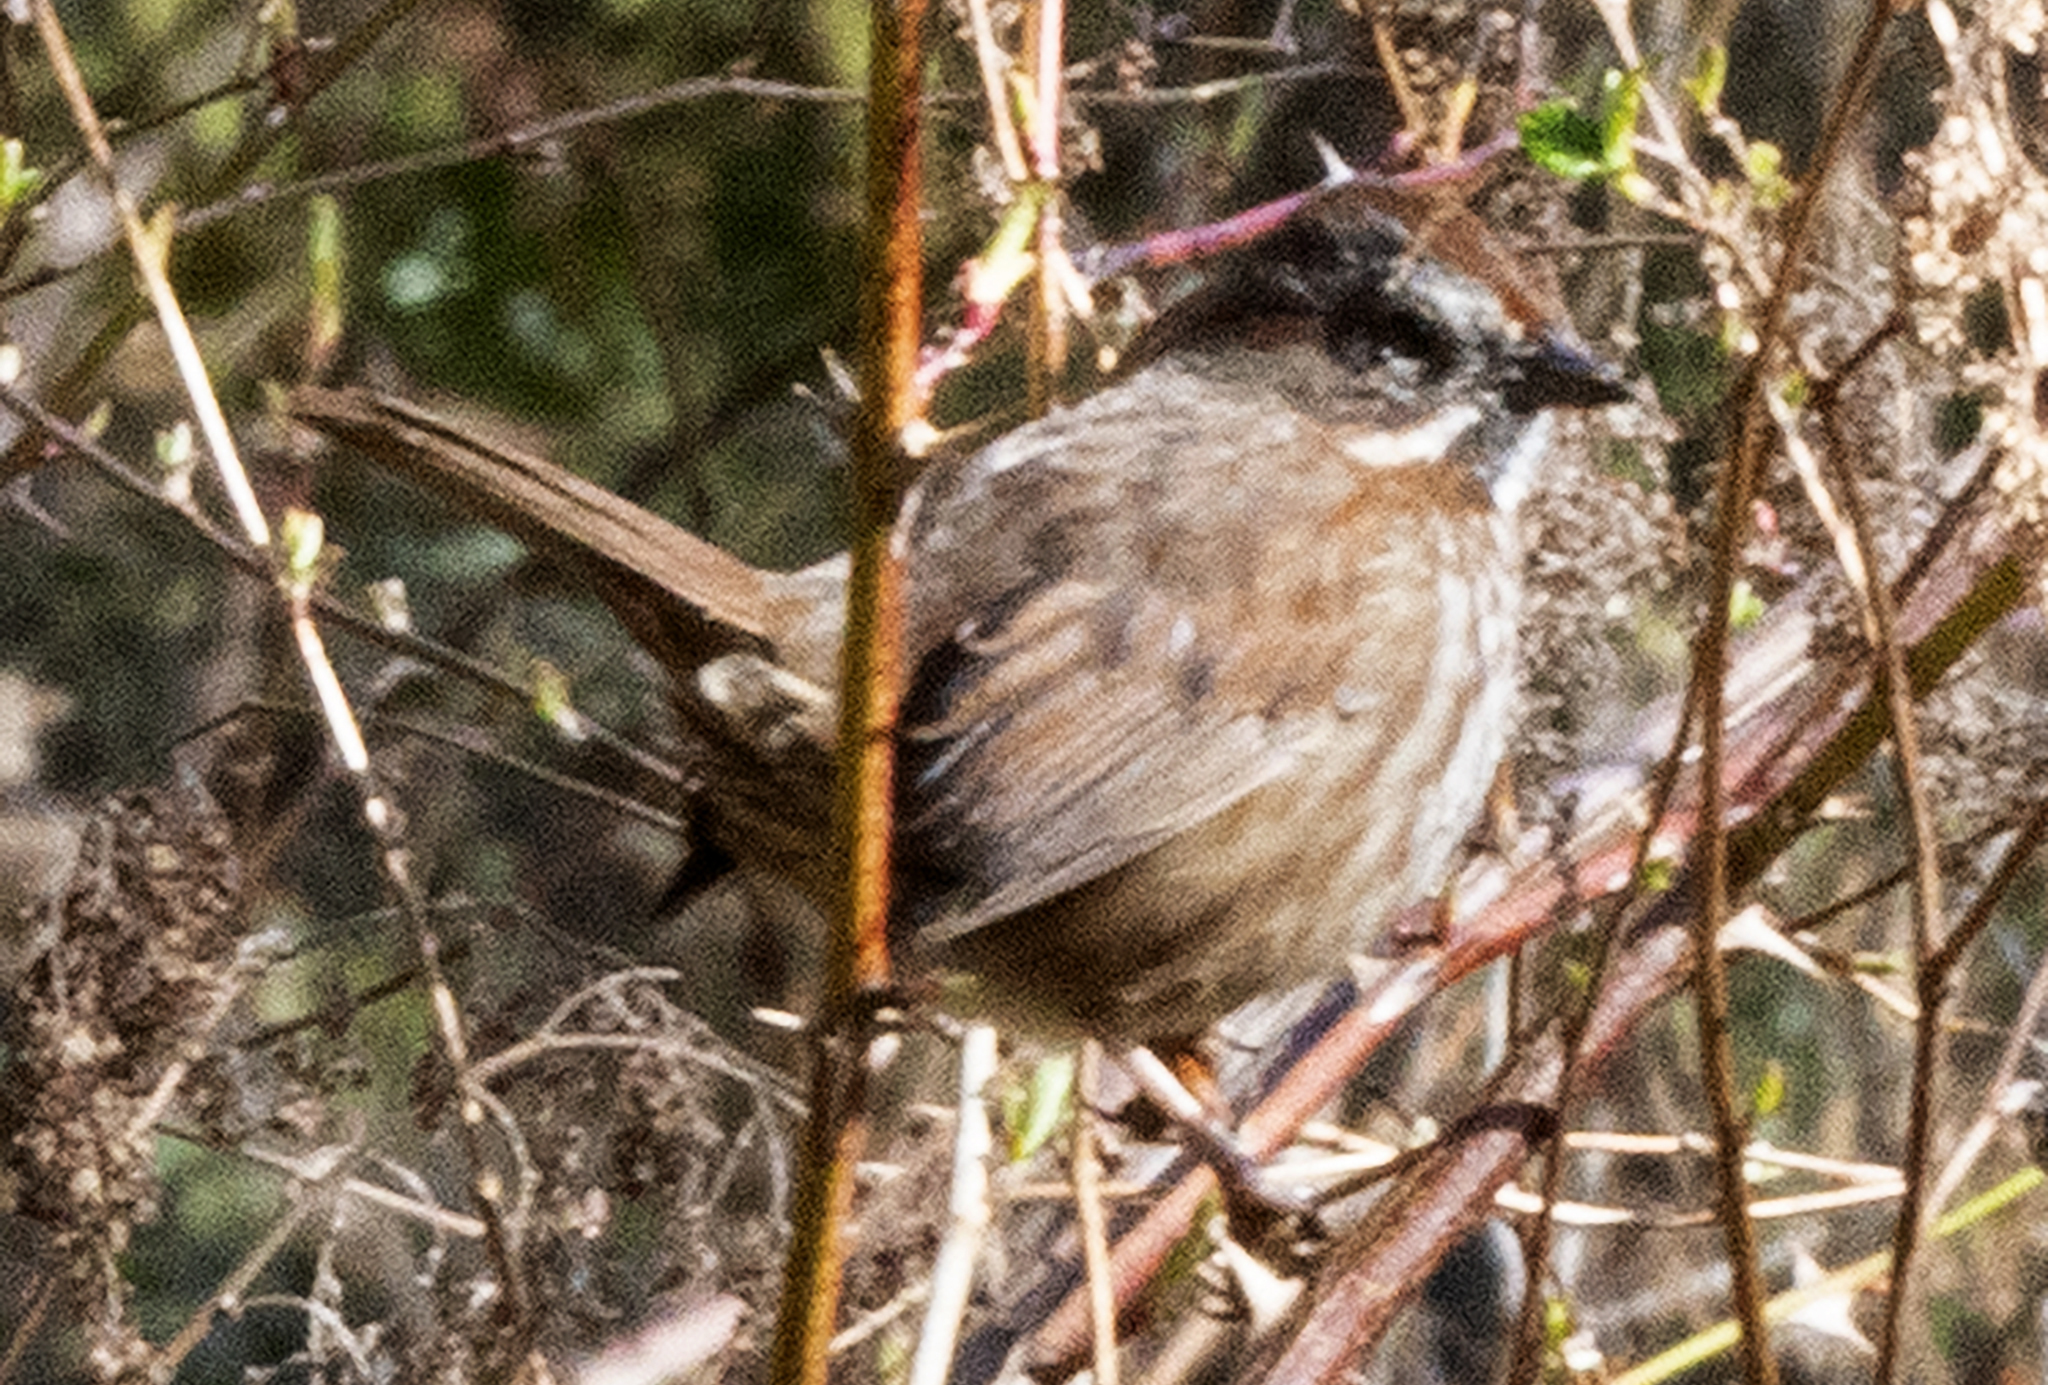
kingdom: Animalia
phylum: Chordata
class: Aves
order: Passeriformes
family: Passerellidae
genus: Melospiza
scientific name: Melospiza melodia
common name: Song sparrow
